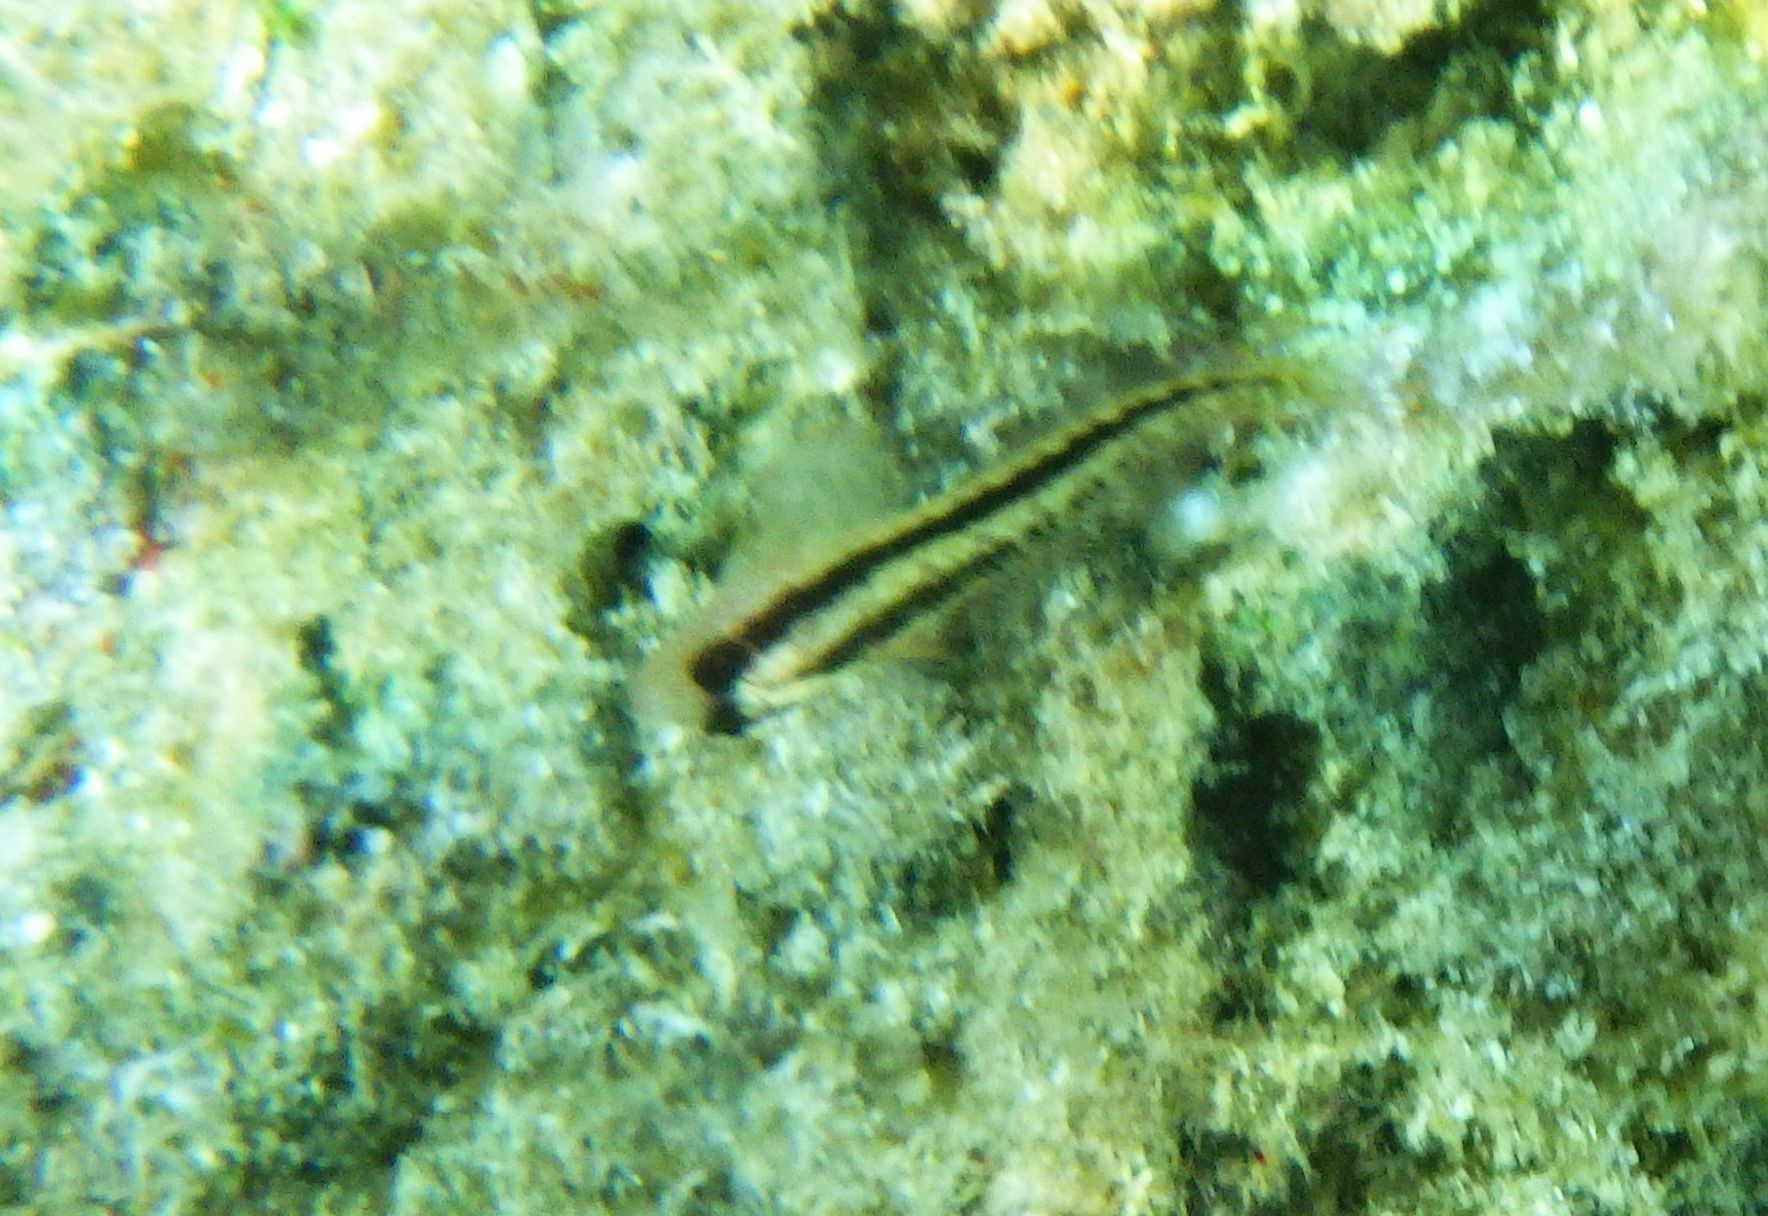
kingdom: Animalia
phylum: Chordata
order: Perciformes
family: Blenniidae
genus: Parablennius
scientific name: Parablennius pilicornis
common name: Ringneck blenny
